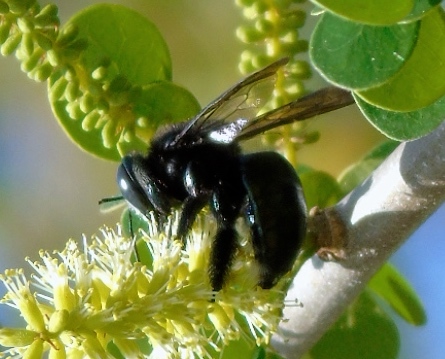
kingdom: Animalia
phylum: Arthropoda
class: Insecta
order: Hymenoptera
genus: Schonnherria
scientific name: Schonnherria
